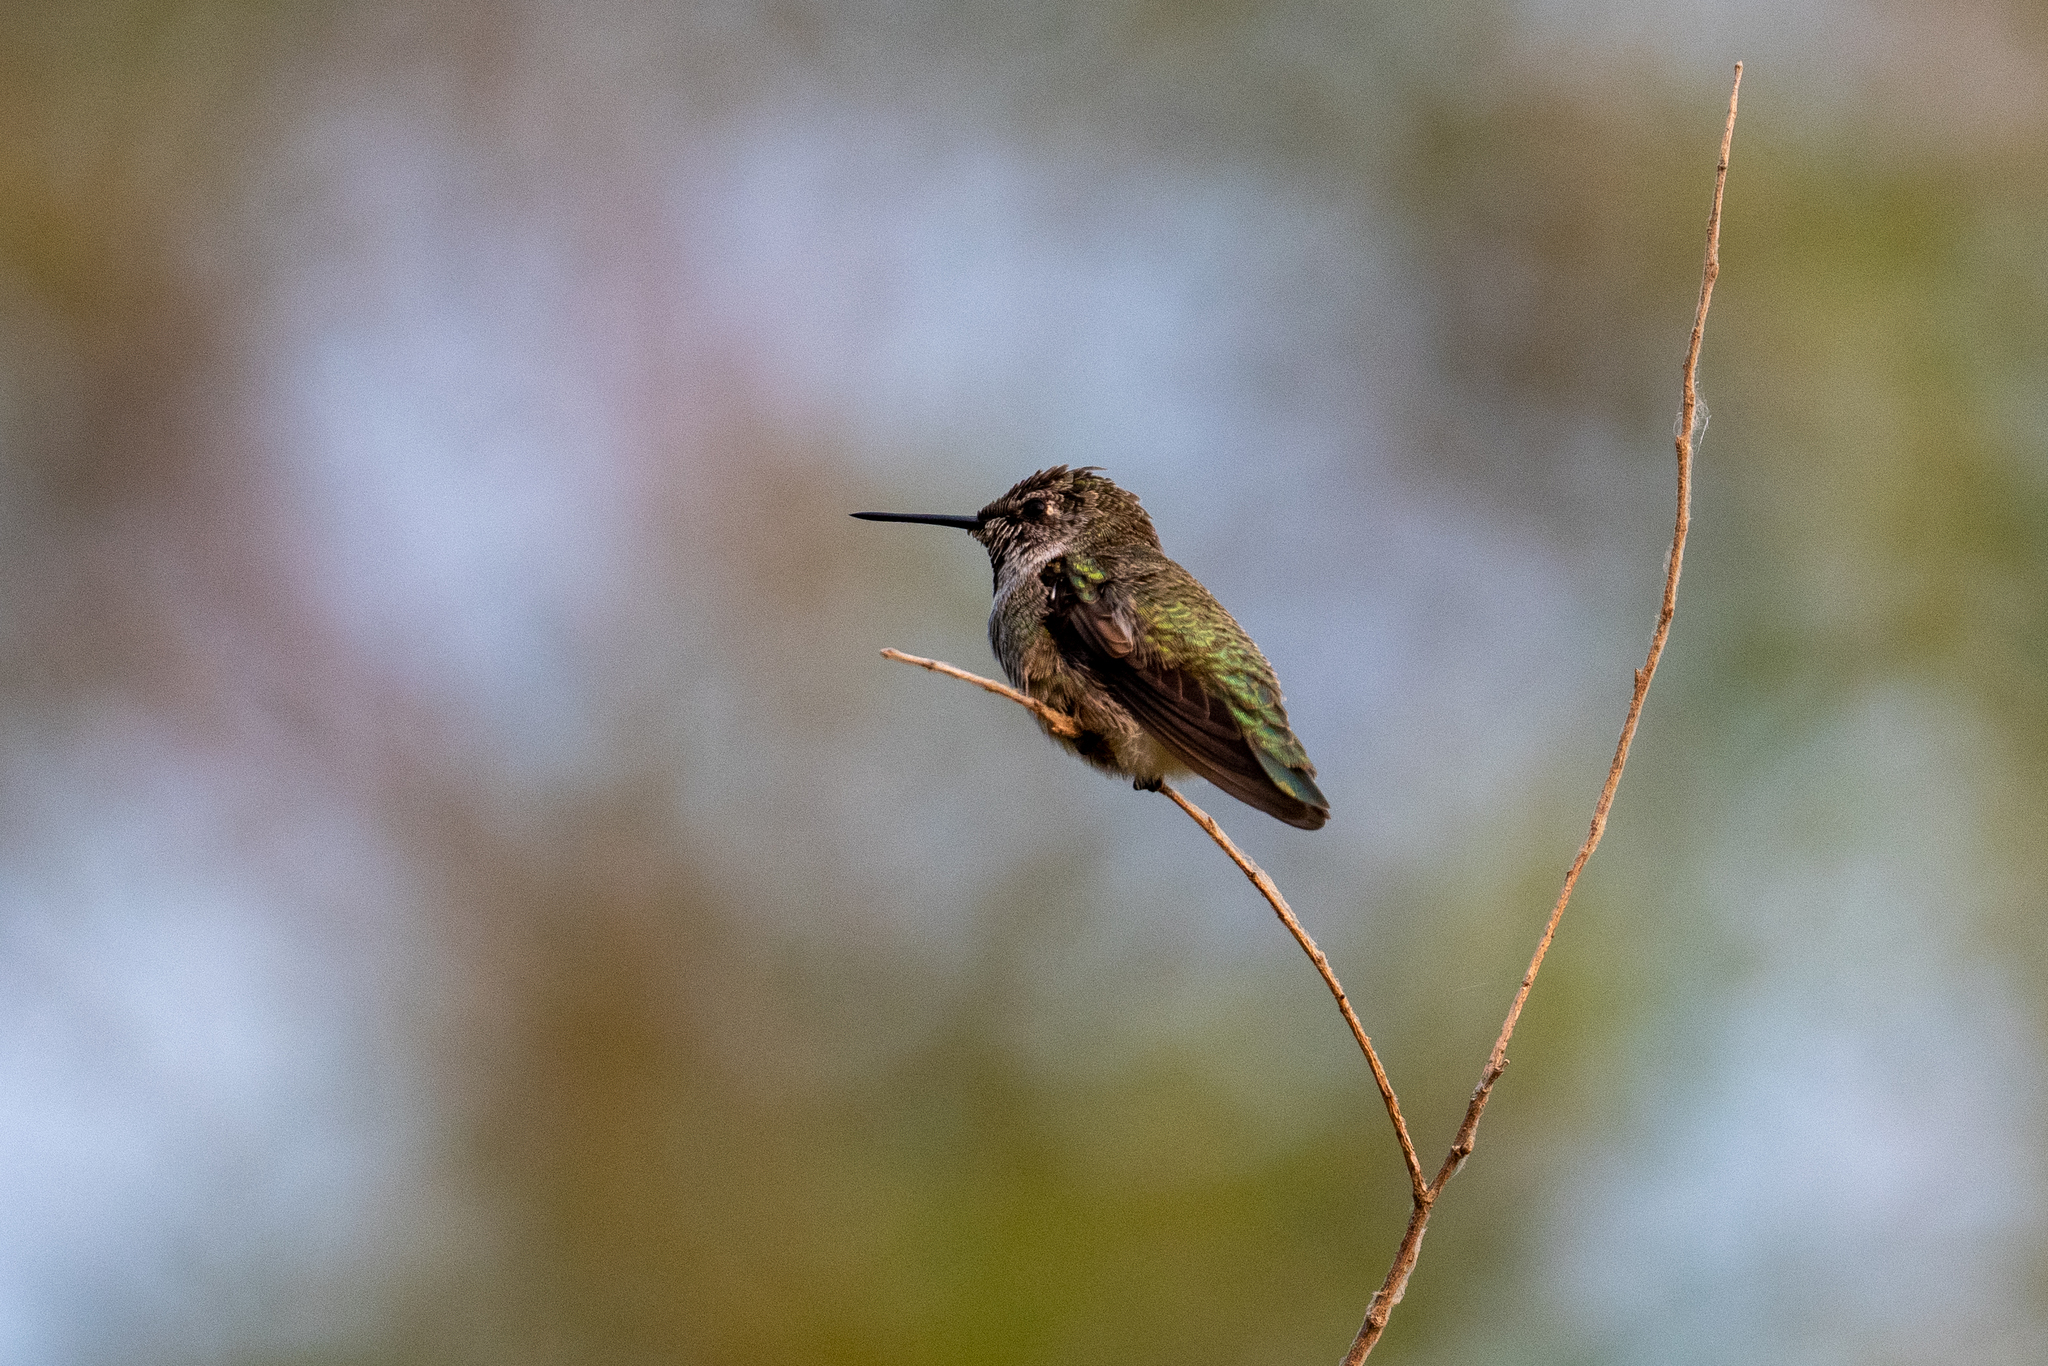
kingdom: Animalia
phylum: Chordata
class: Aves
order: Apodiformes
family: Trochilidae
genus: Calypte
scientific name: Calypte anna
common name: Anna's hummingbird
